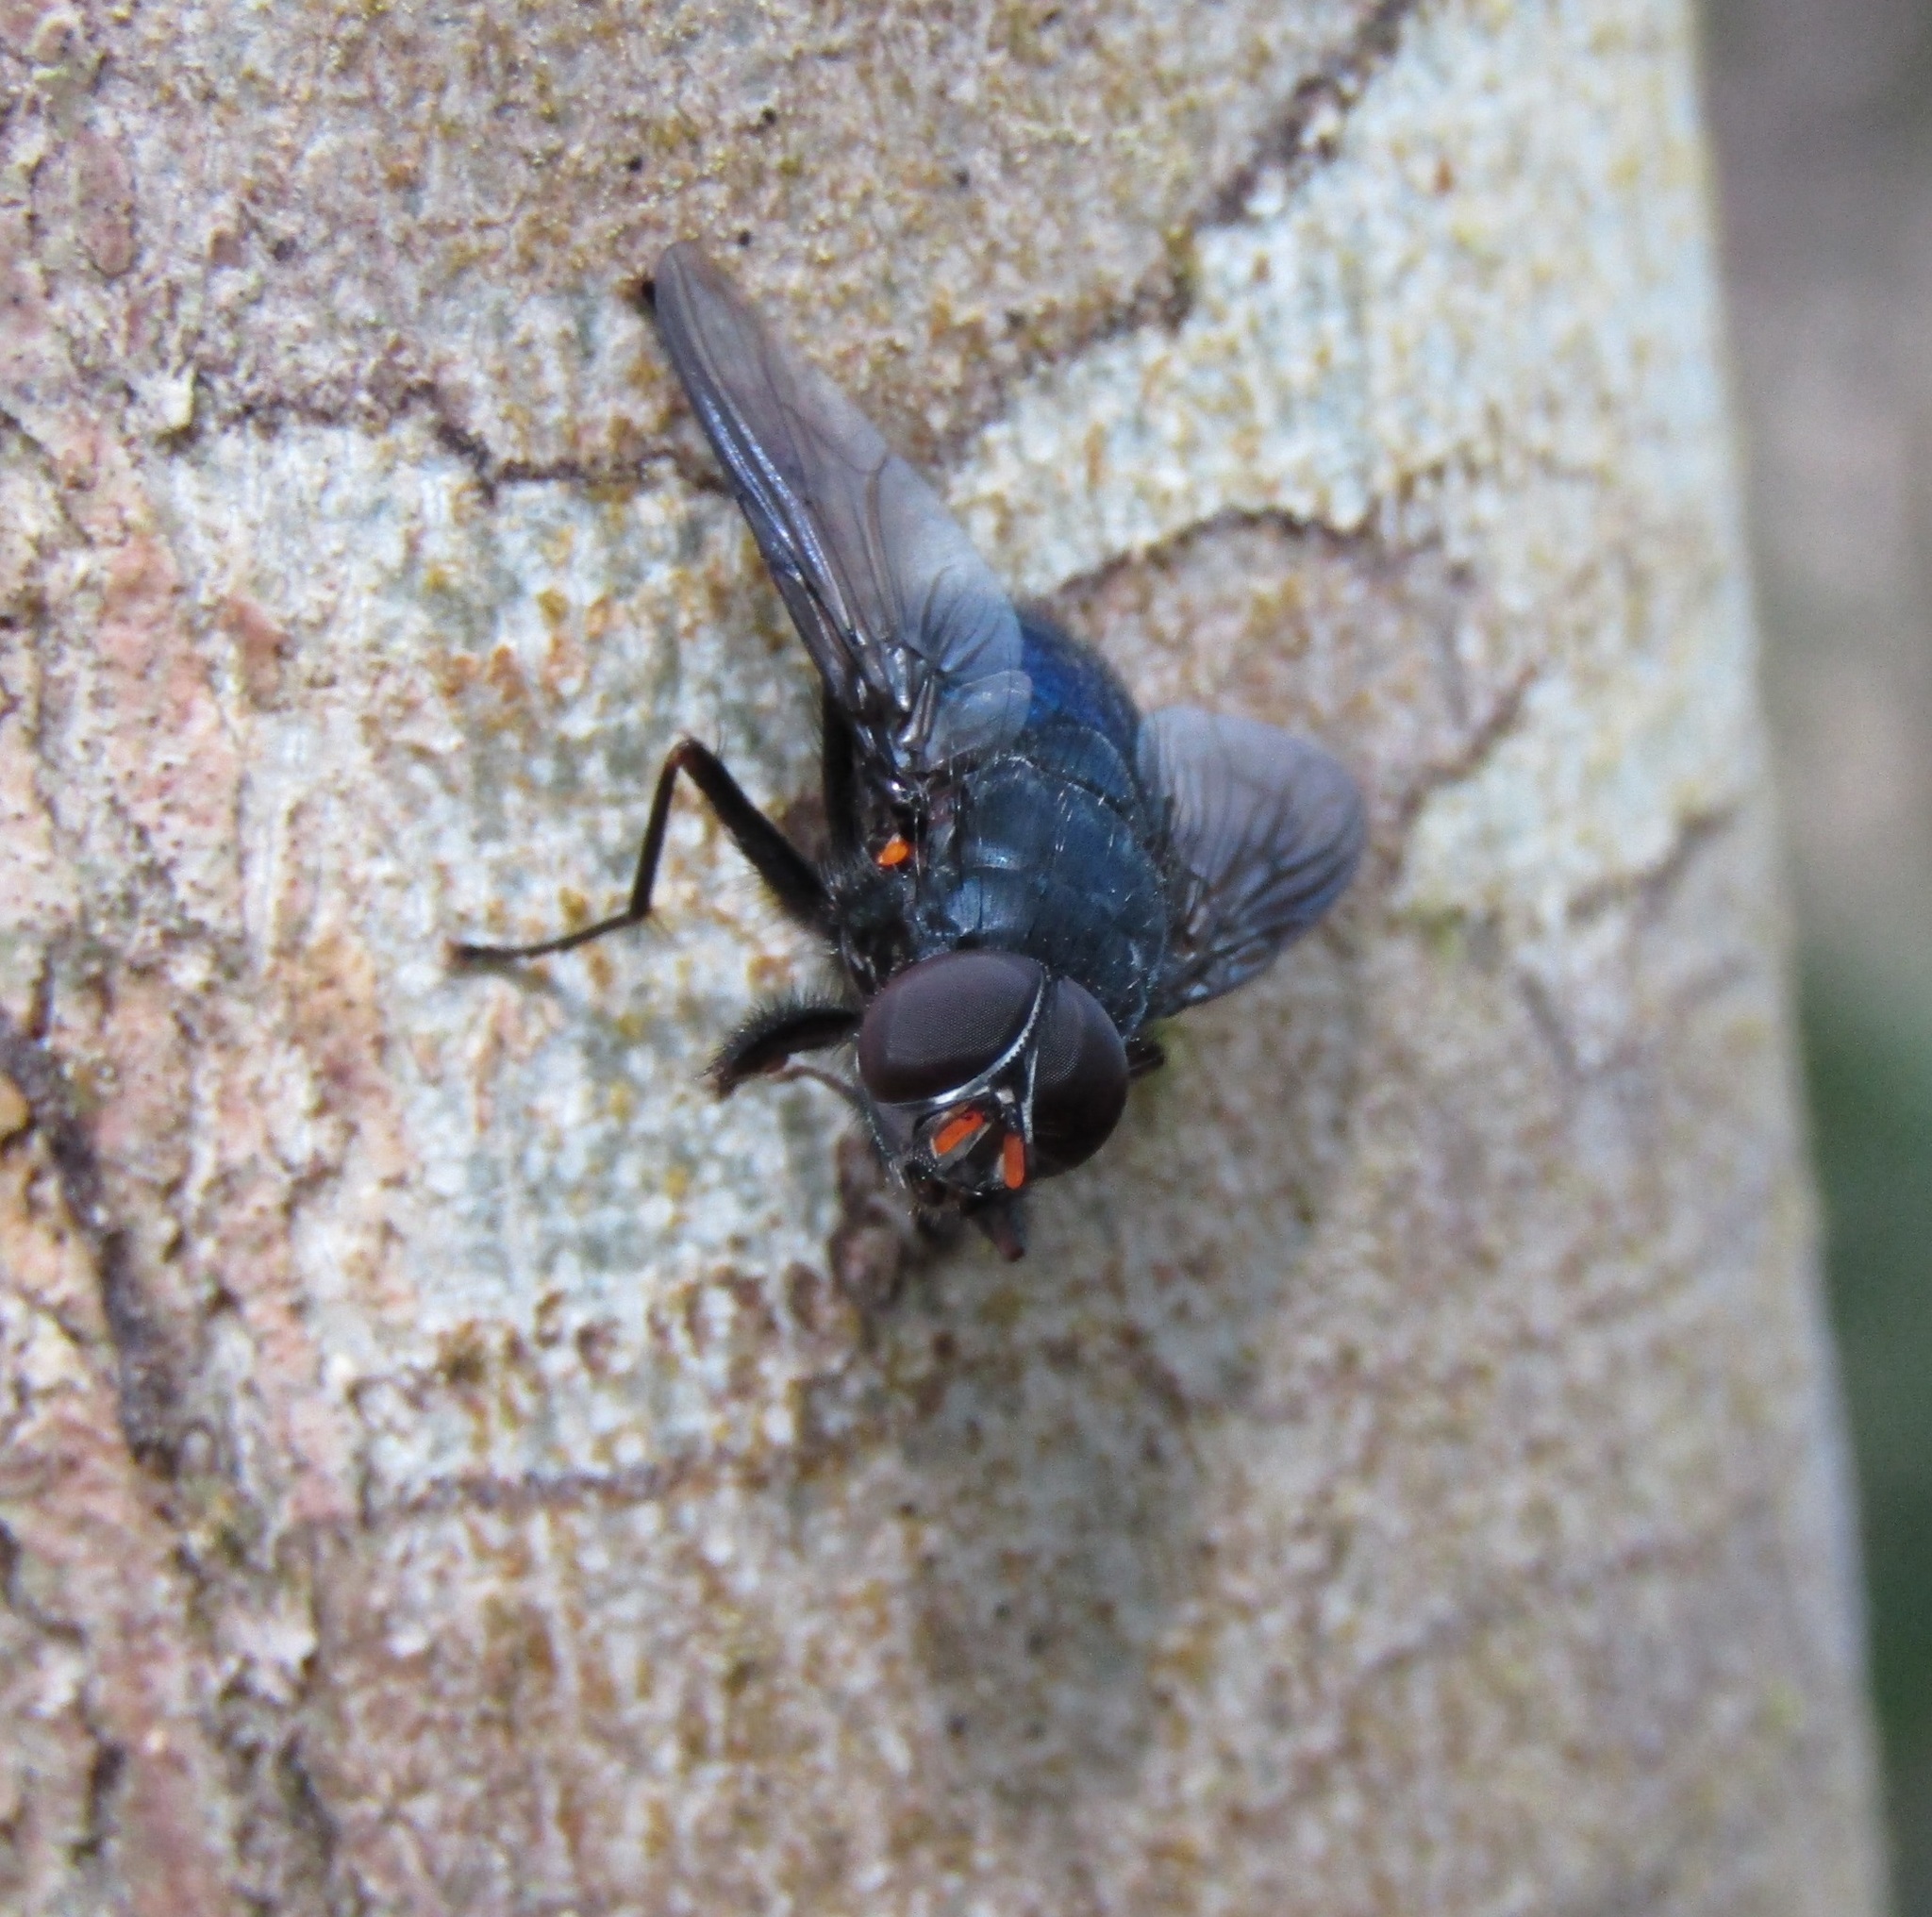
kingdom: Animalia
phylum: Arthropoda
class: Insecta
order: Diptera
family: Muscidae
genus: Calliphoroides
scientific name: Calliphoroides antennatis
